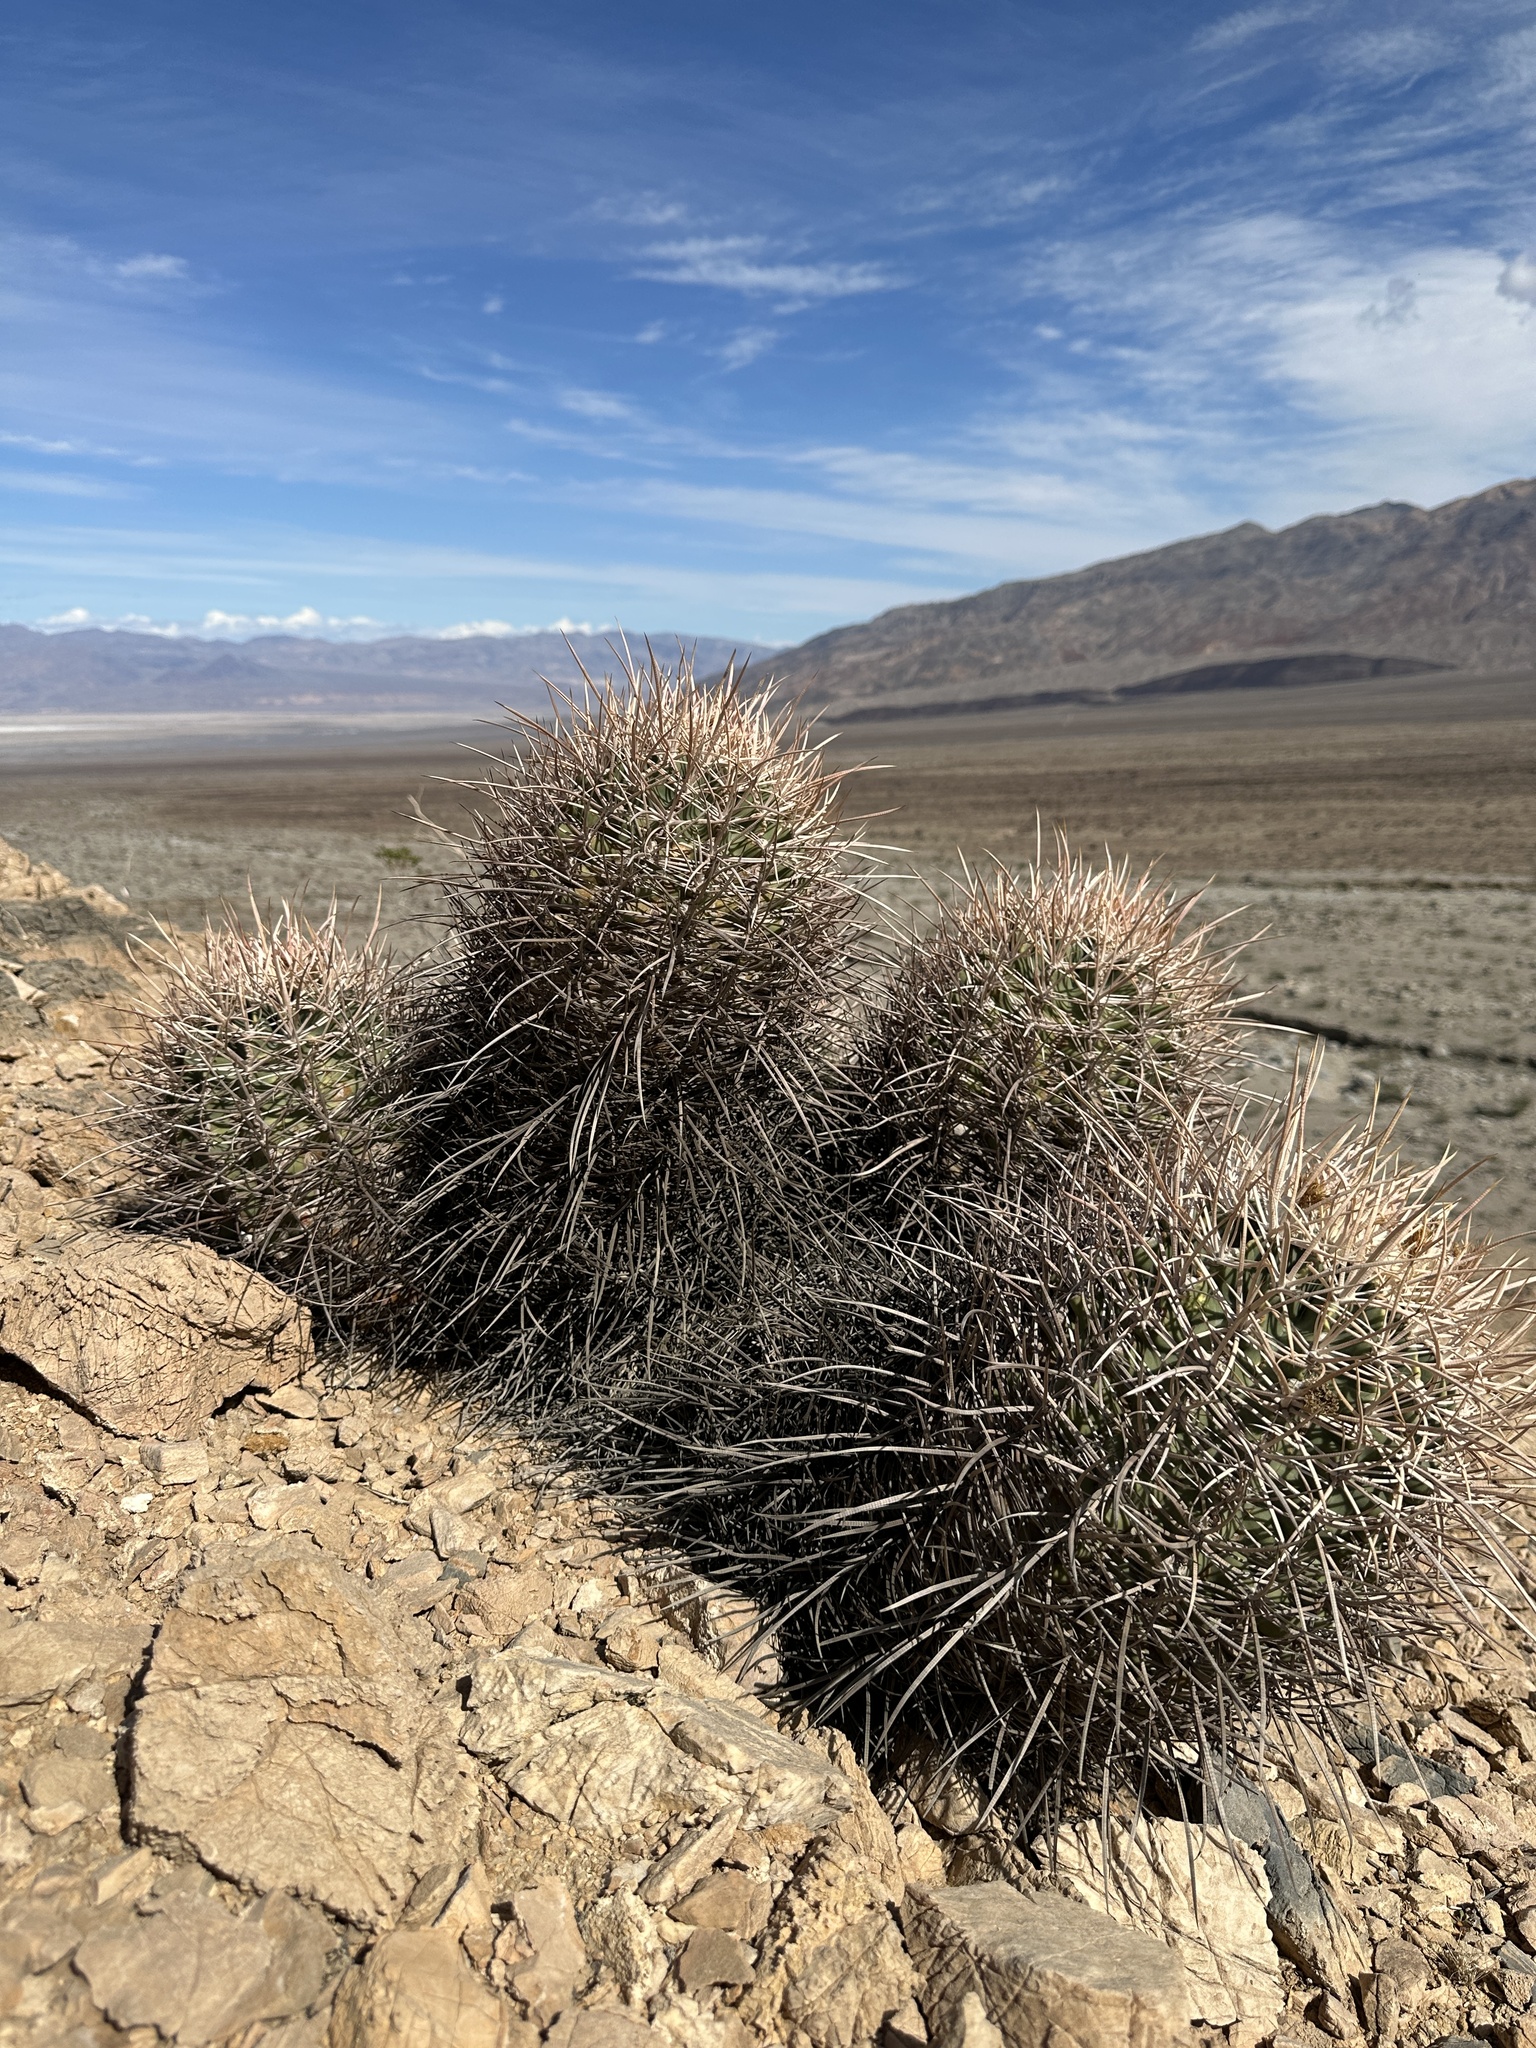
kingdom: Plantae
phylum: Tracheophyta
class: Magnoliopsida
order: Caryophyllales
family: Cactaceae
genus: Echinocactus
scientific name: Echinocactus polycephalus
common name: Cottontop cactus
